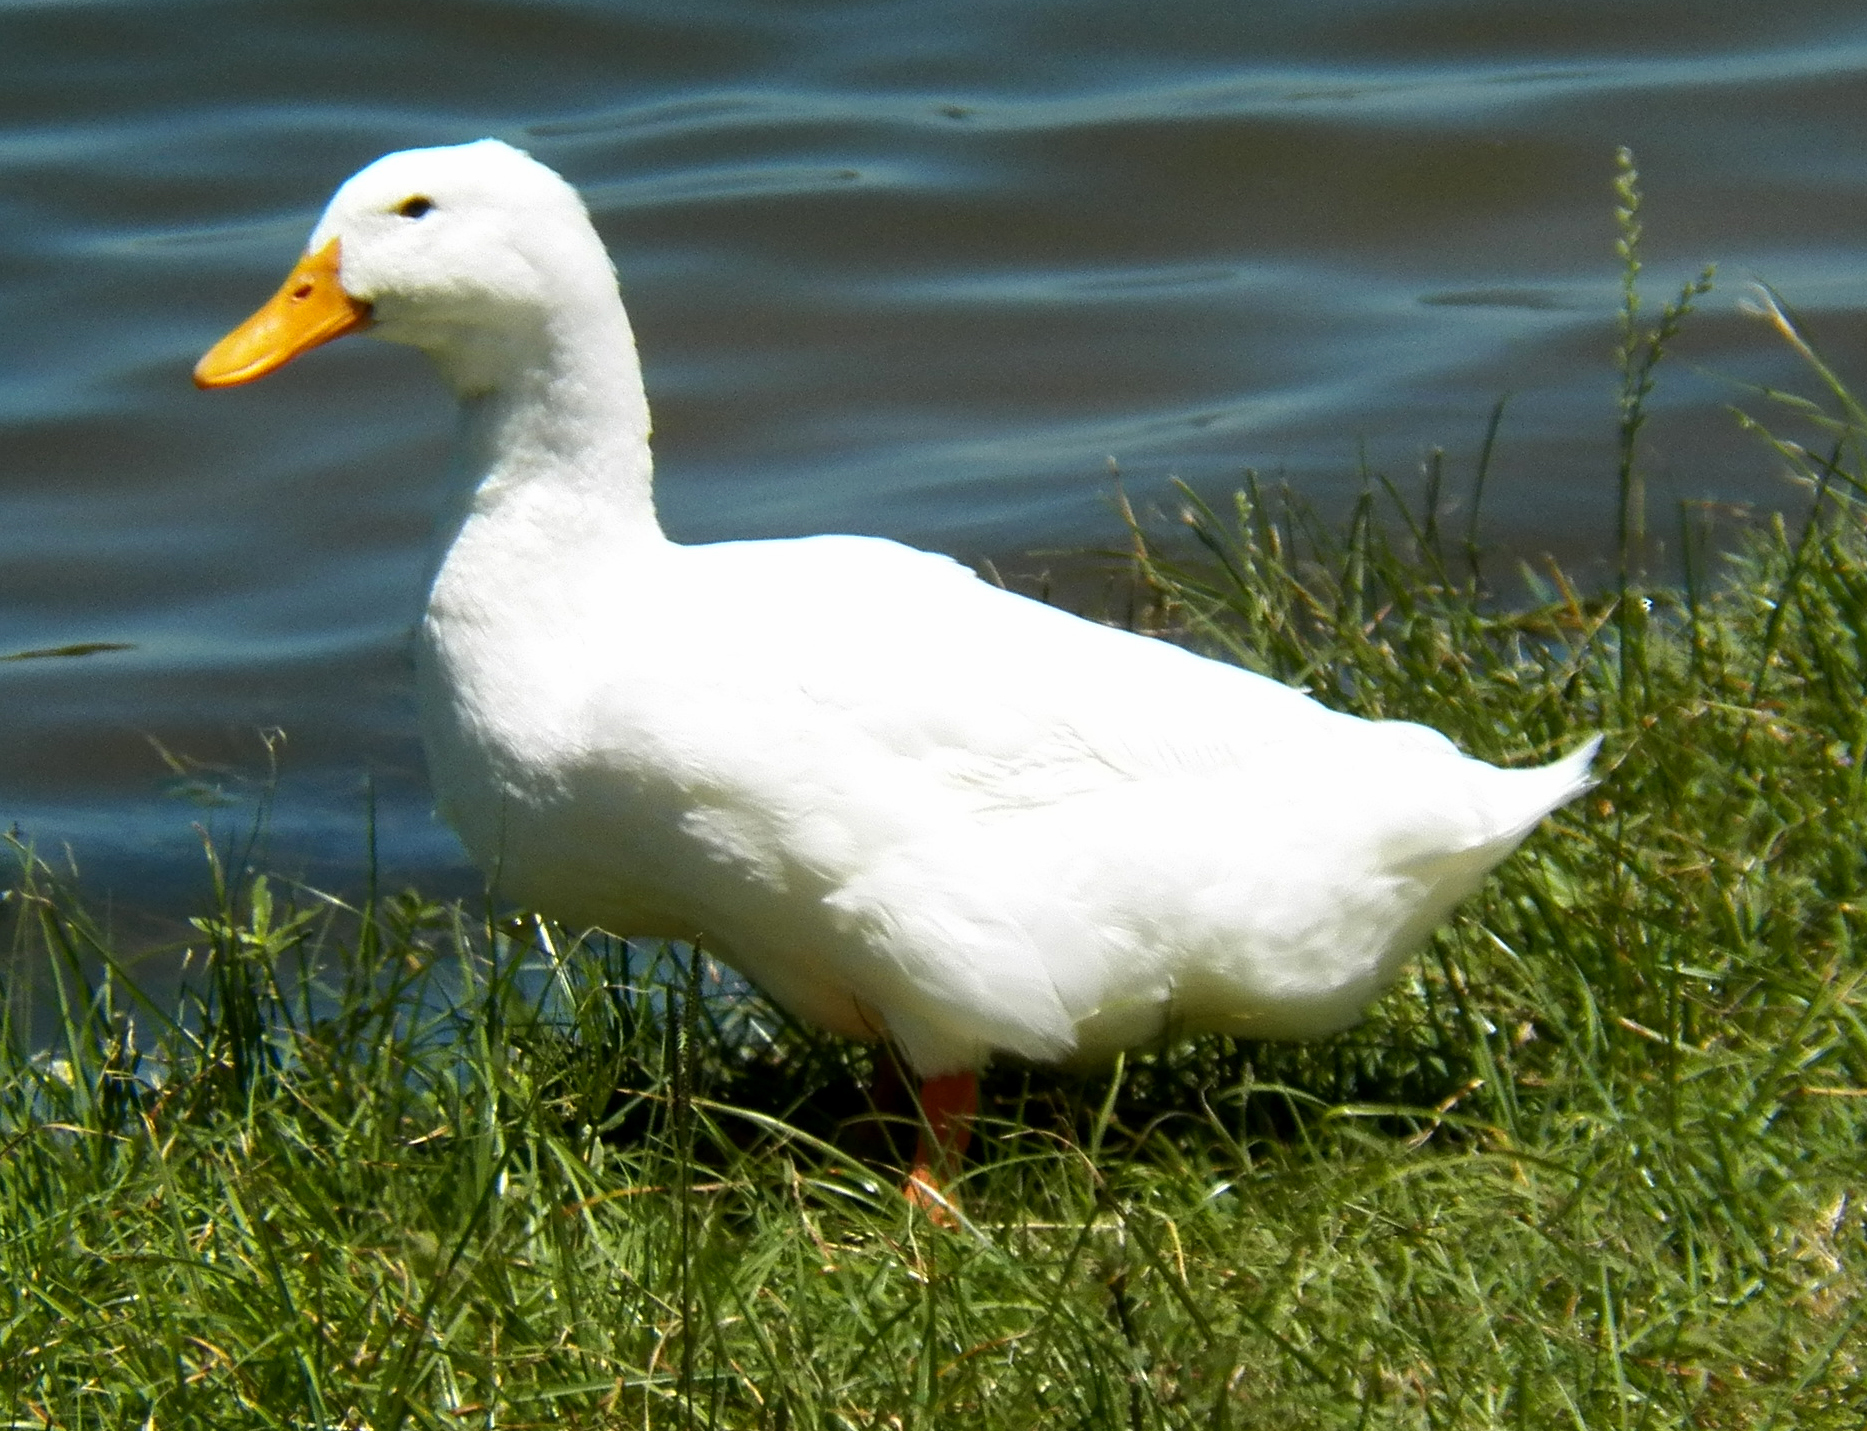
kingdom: Animalia
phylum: Chordata
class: Aves
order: Anseriformes
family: Anatidae
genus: Anas
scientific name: Anas platyrhynchos
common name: Mallard
